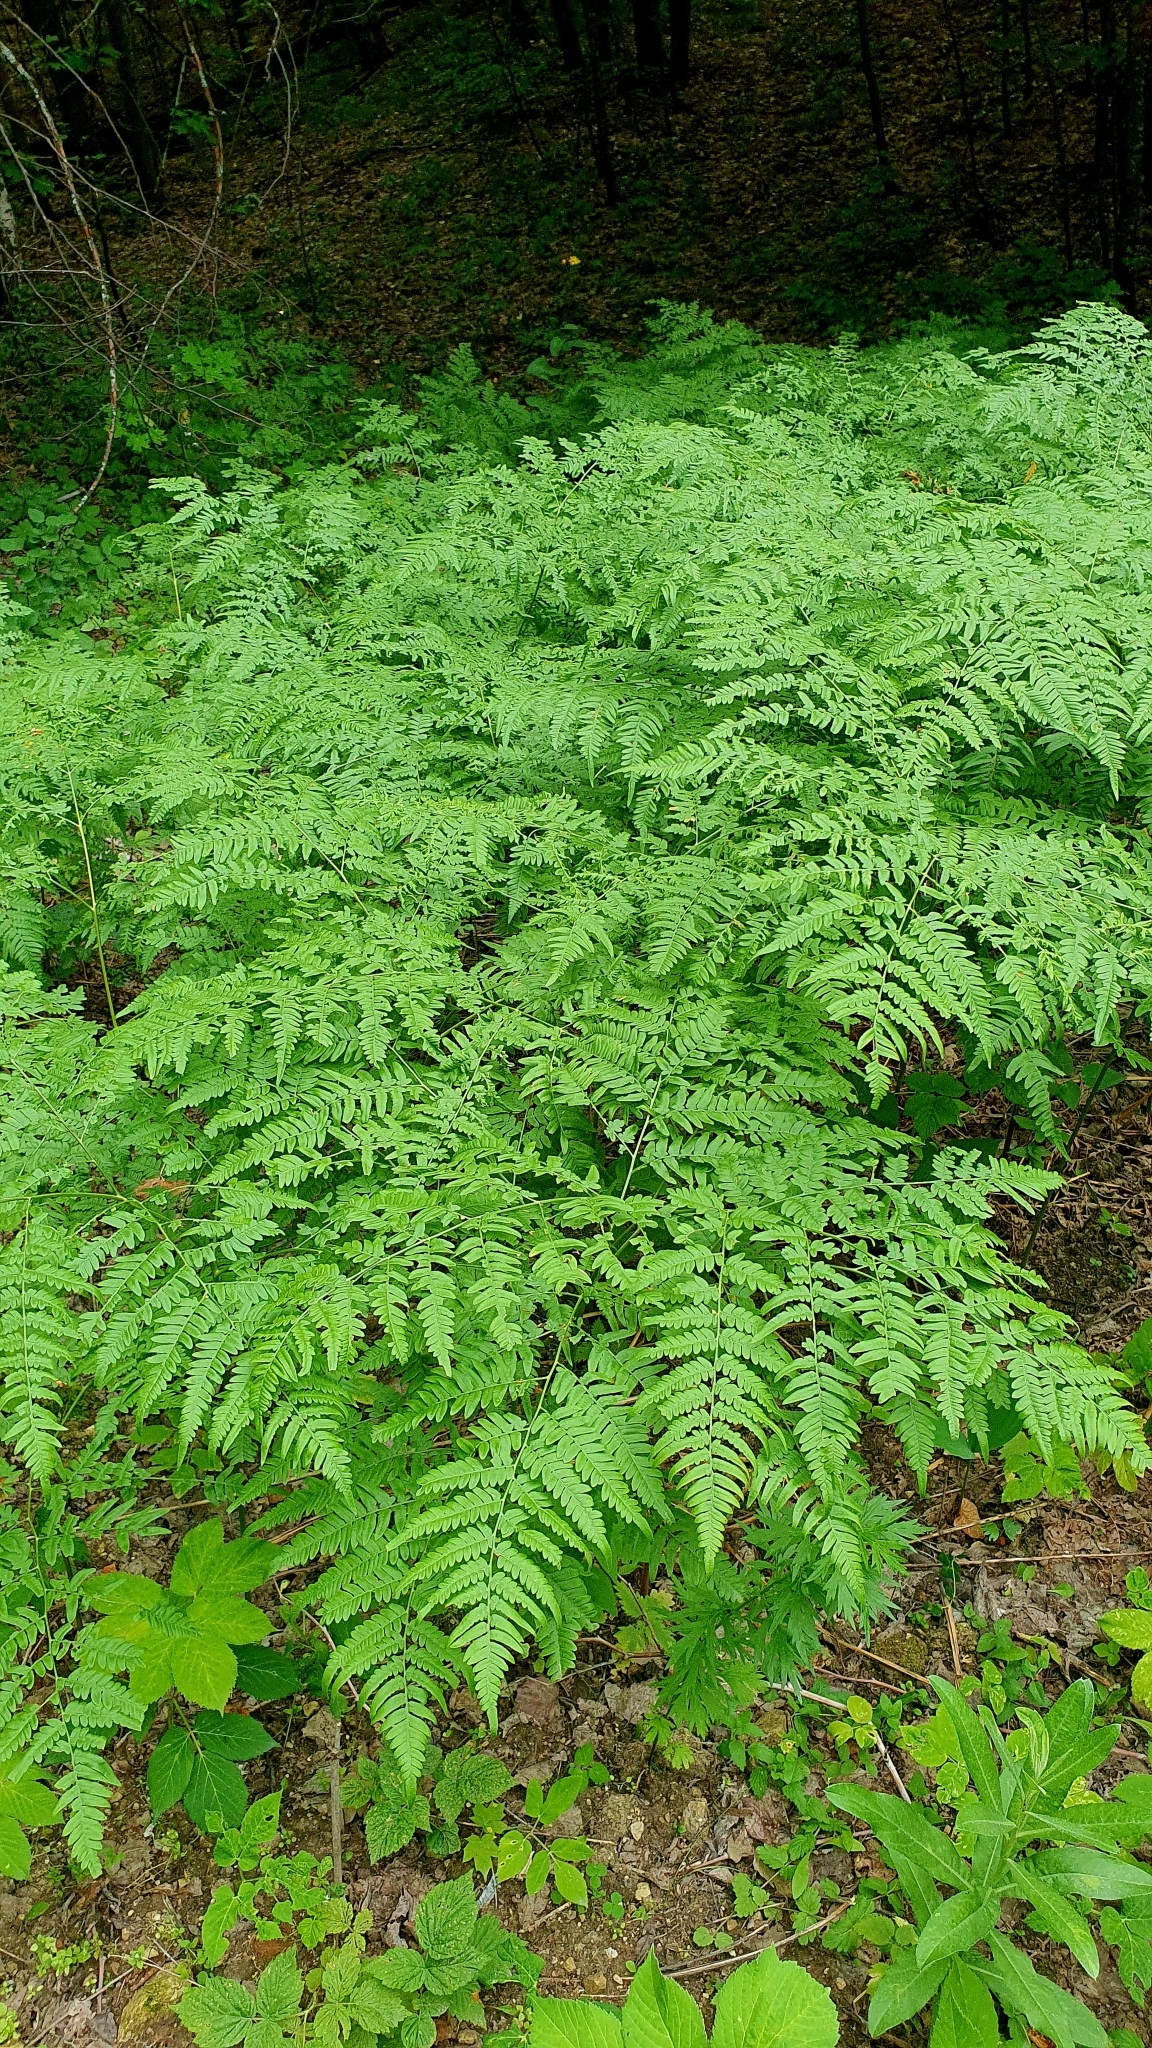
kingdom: Plantae
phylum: Tracheophyta
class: Polypodiopsida
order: Polypodiales
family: Dennstaedtiaceae
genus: Pteridium
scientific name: Pteridium aquilinum
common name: Bracken
